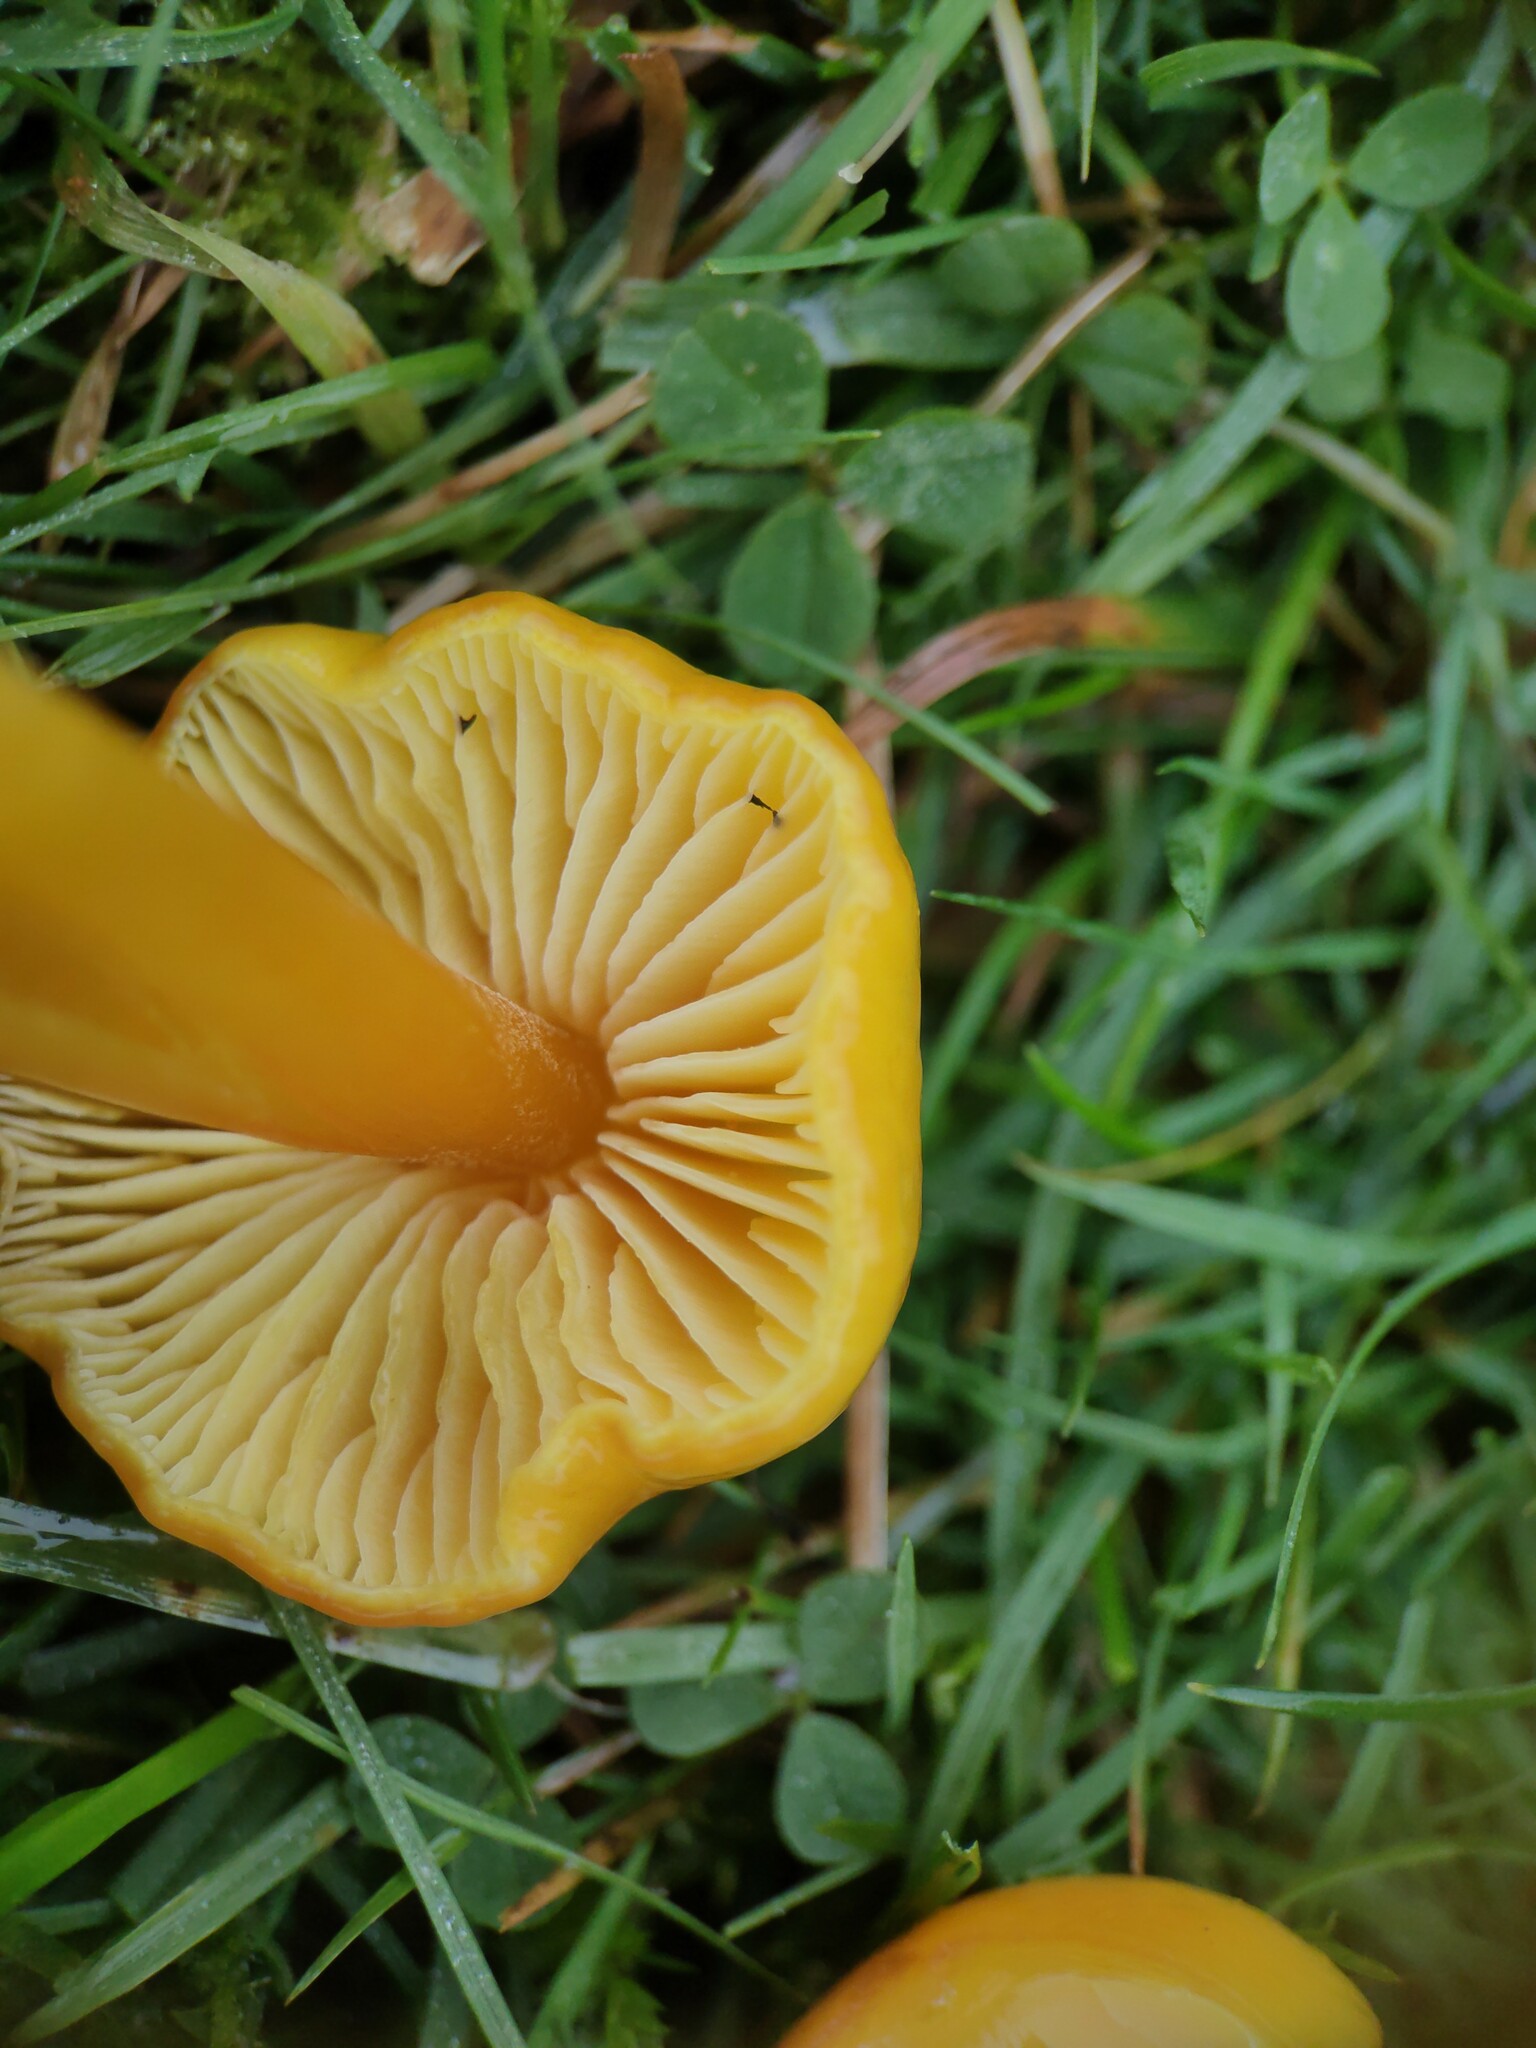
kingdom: Fungi
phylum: Basidiomycota
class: Agaricomycetes
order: Agaricales
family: Hygrophoraceae
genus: Hygrocybe
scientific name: Hygrocybe chlorophana
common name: Golden waxcap
